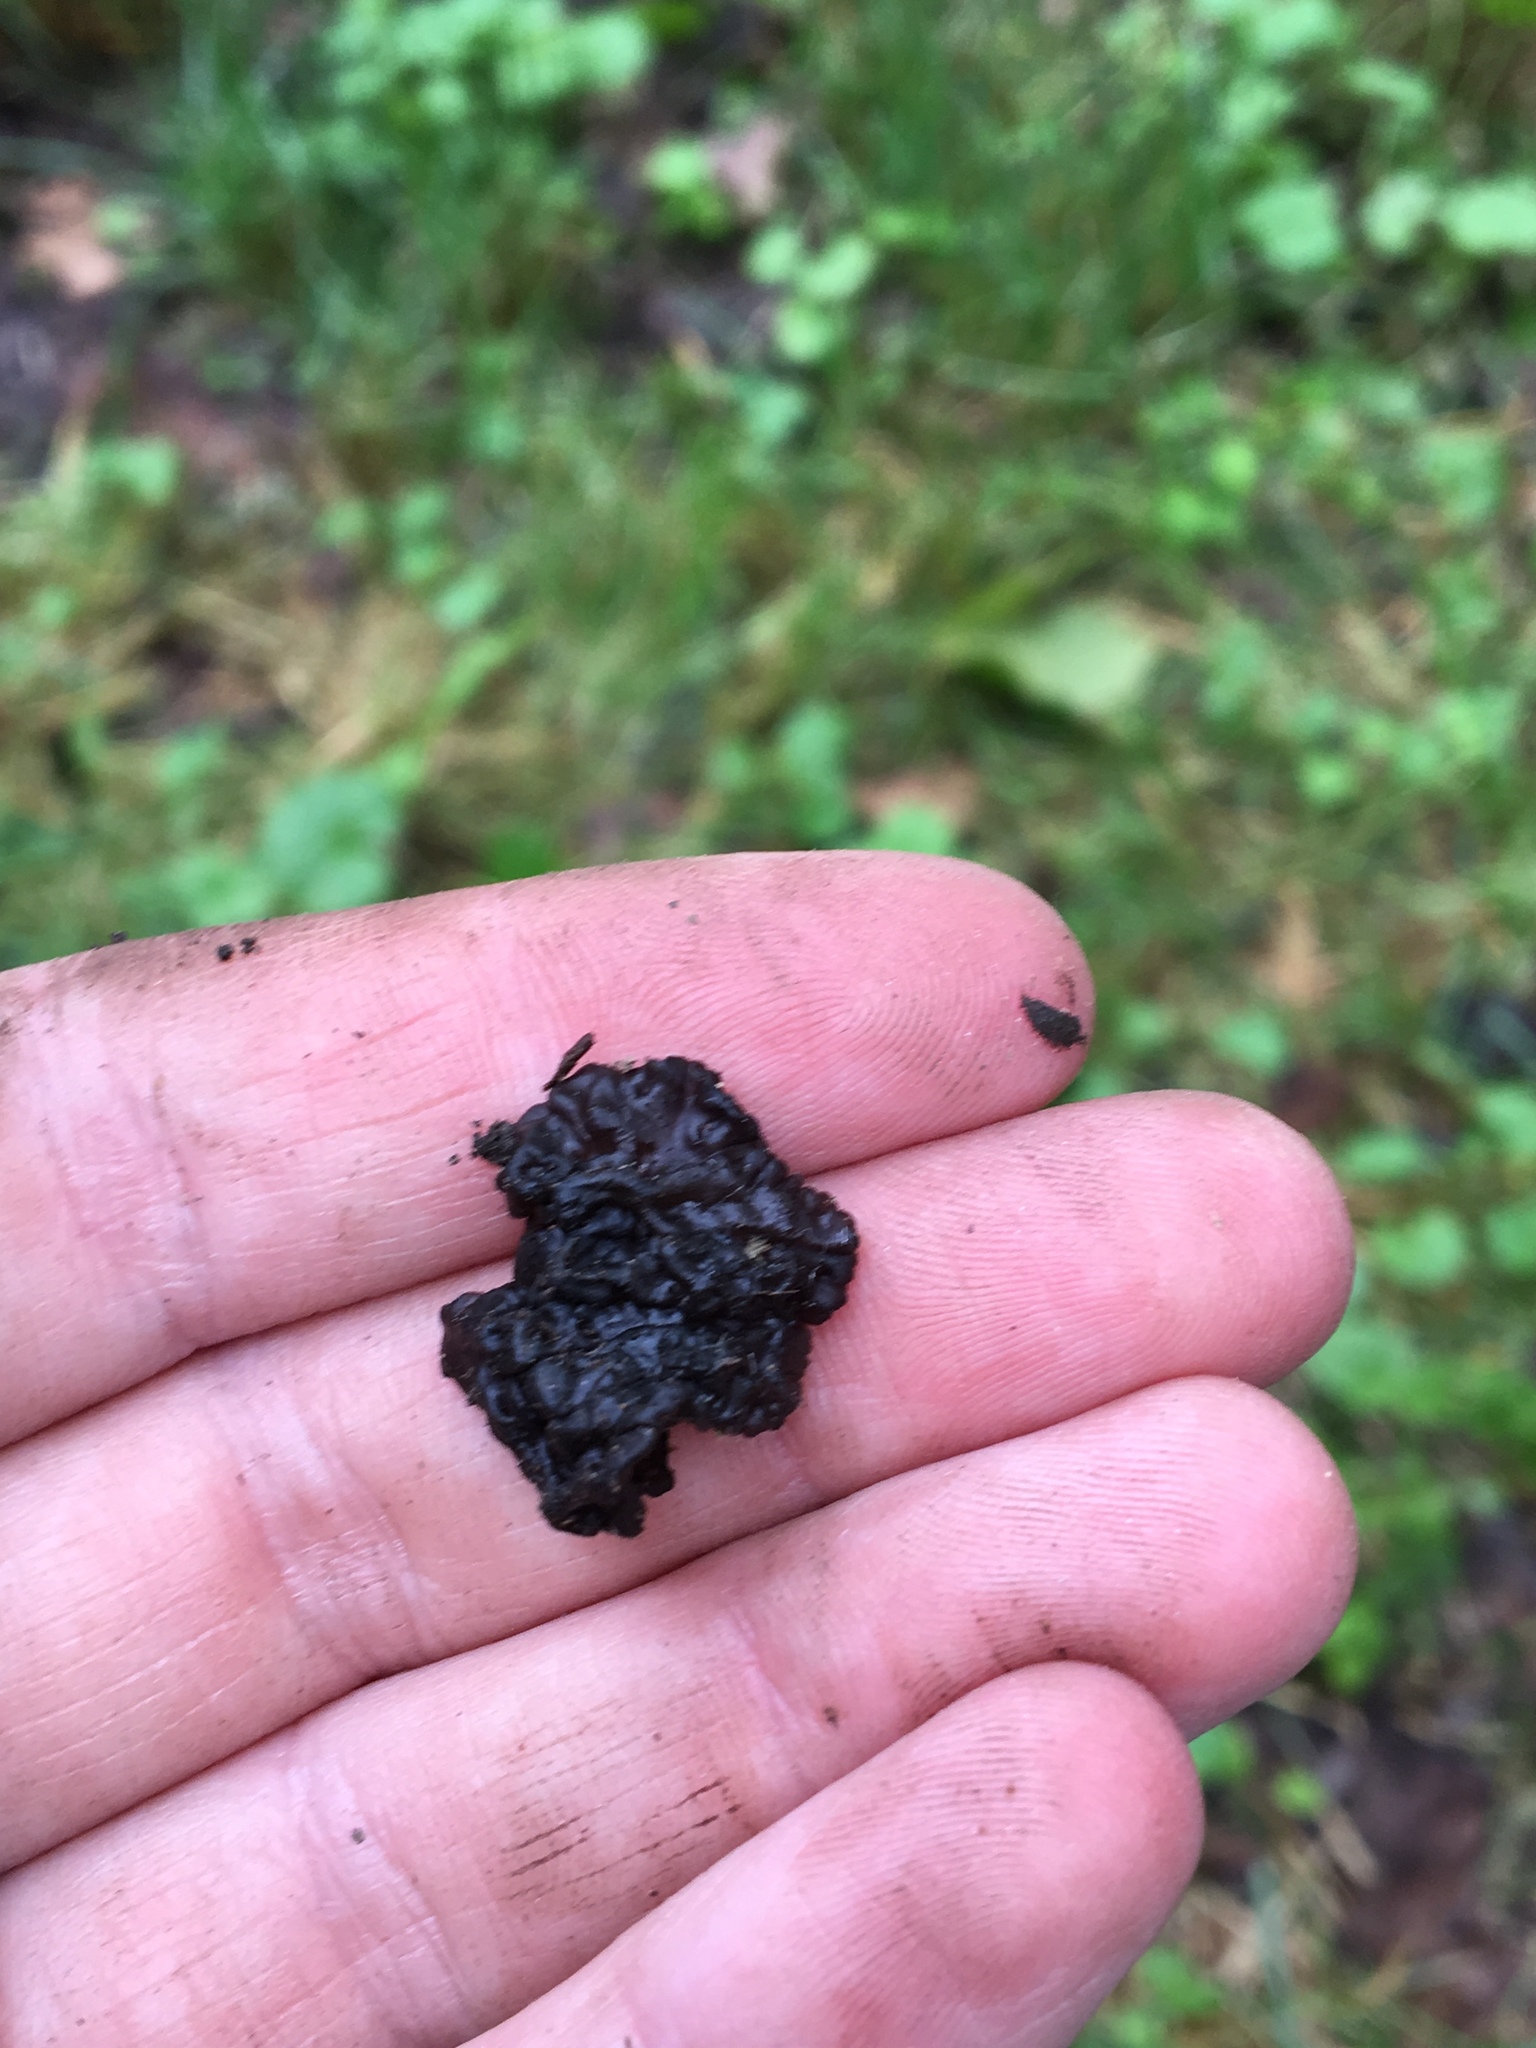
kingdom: Fungi
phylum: Basidiomycota
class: Agaricomycetes
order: Auriculariales
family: Auriculariaceae
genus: Exidia
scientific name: Exidia glandulosa
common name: Witches' butter
